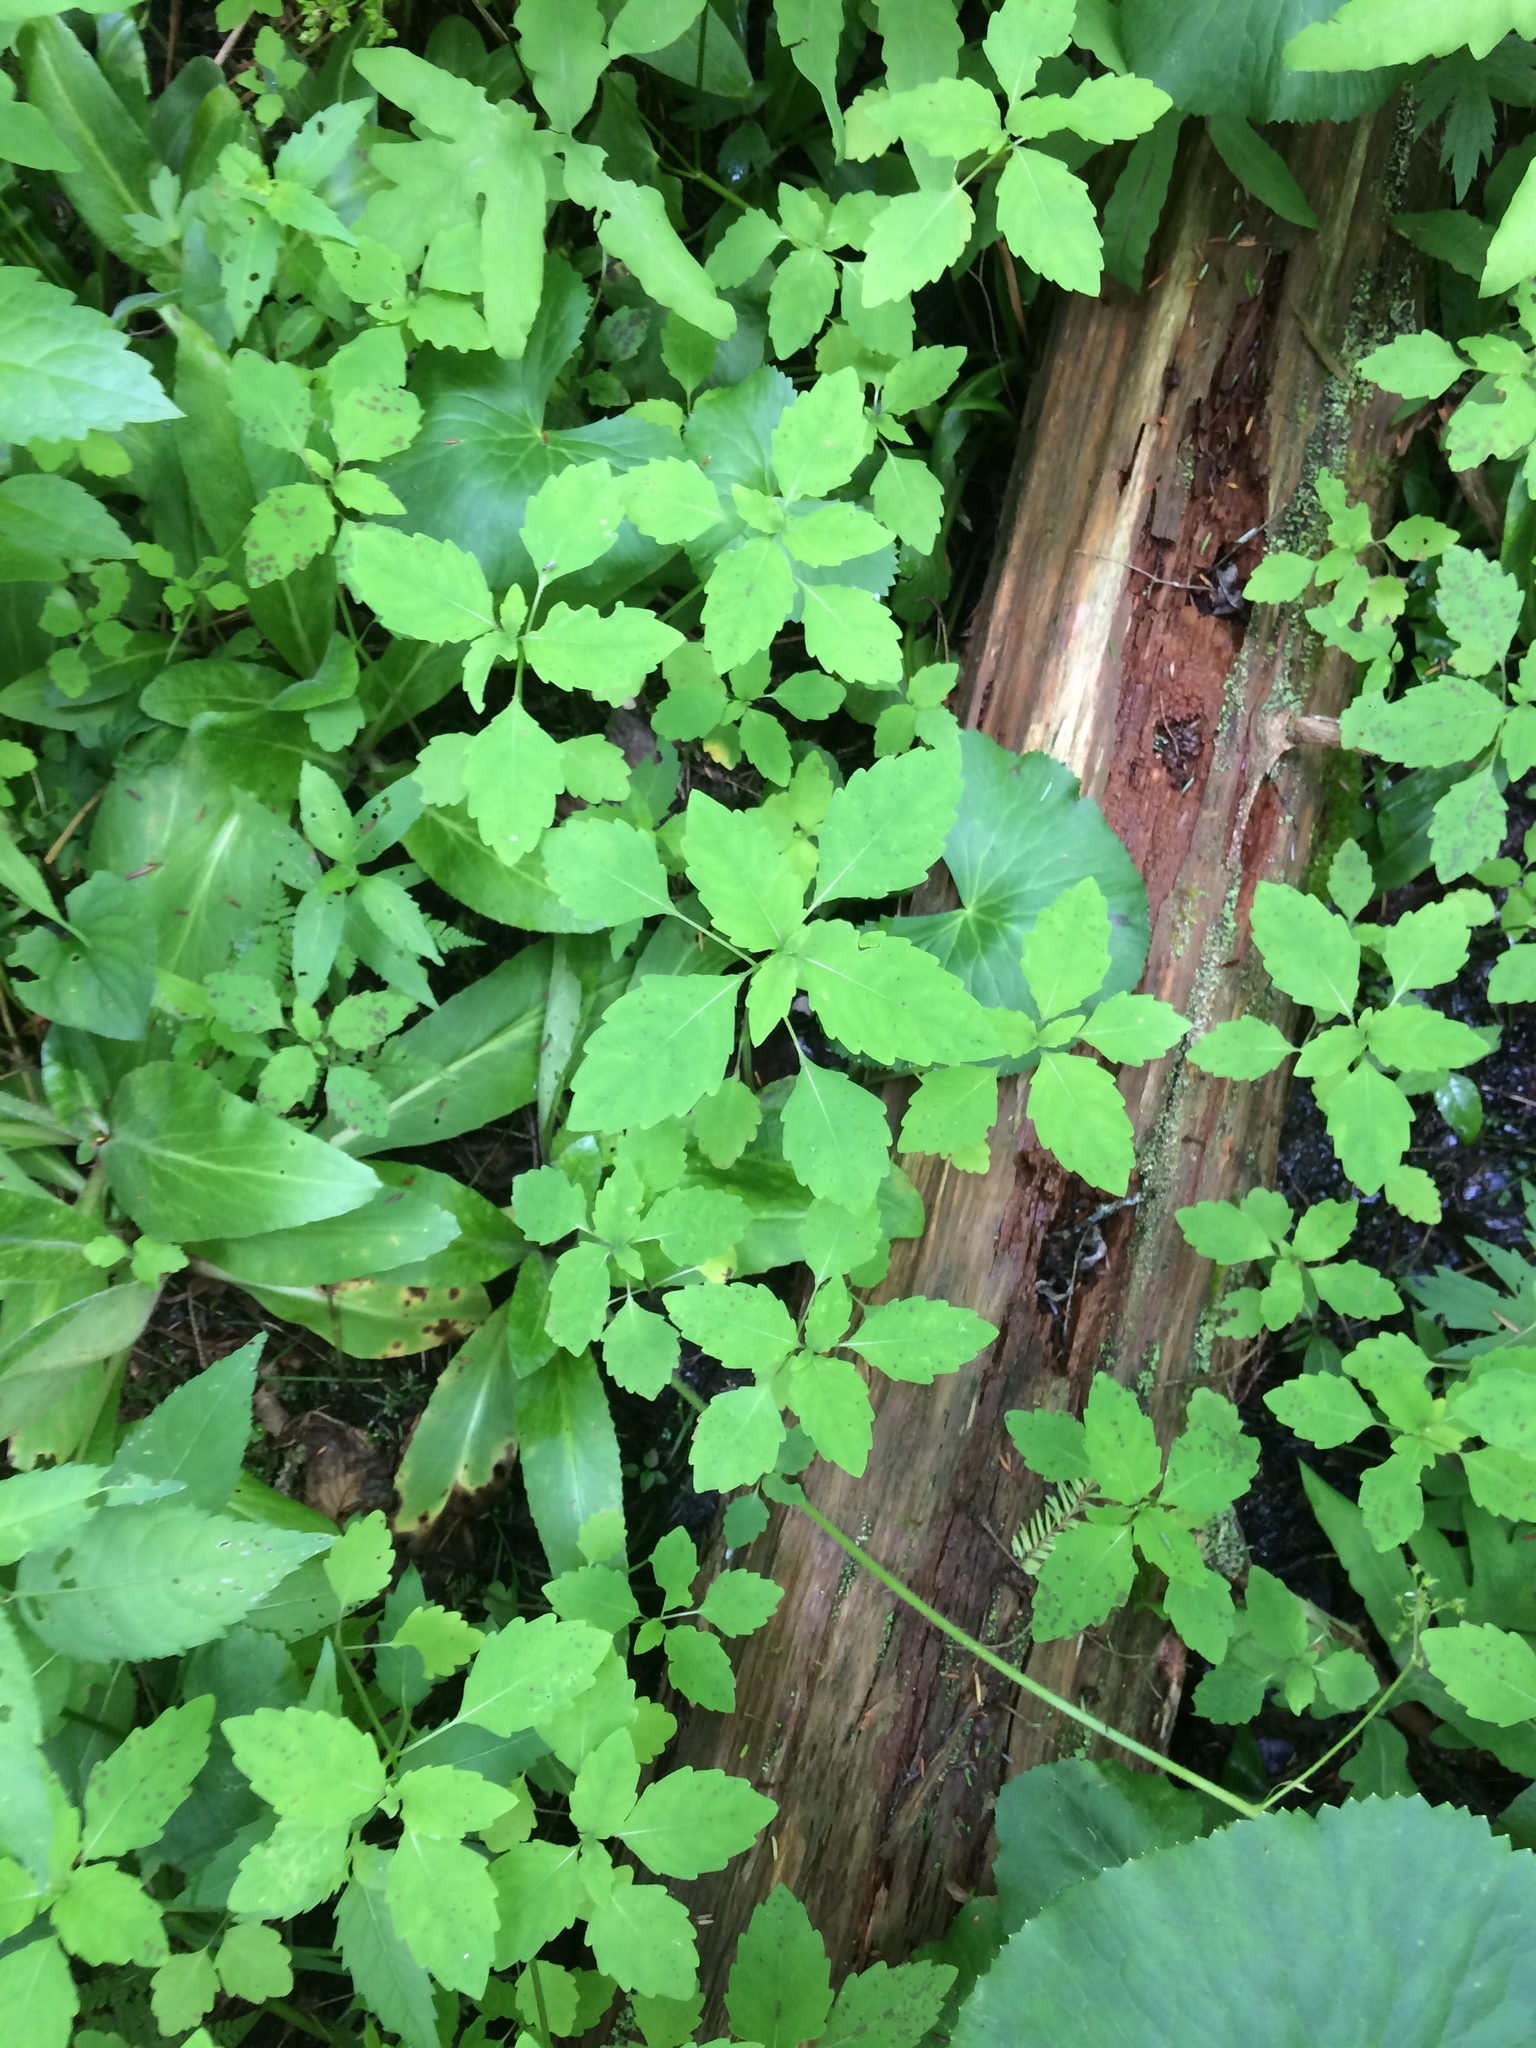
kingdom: Plantae
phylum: Tracheophyta
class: Magnoliopsida
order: Ericales
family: Balsaminaceae
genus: Impatiens
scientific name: Impatiens capensis
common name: Orange balsam
